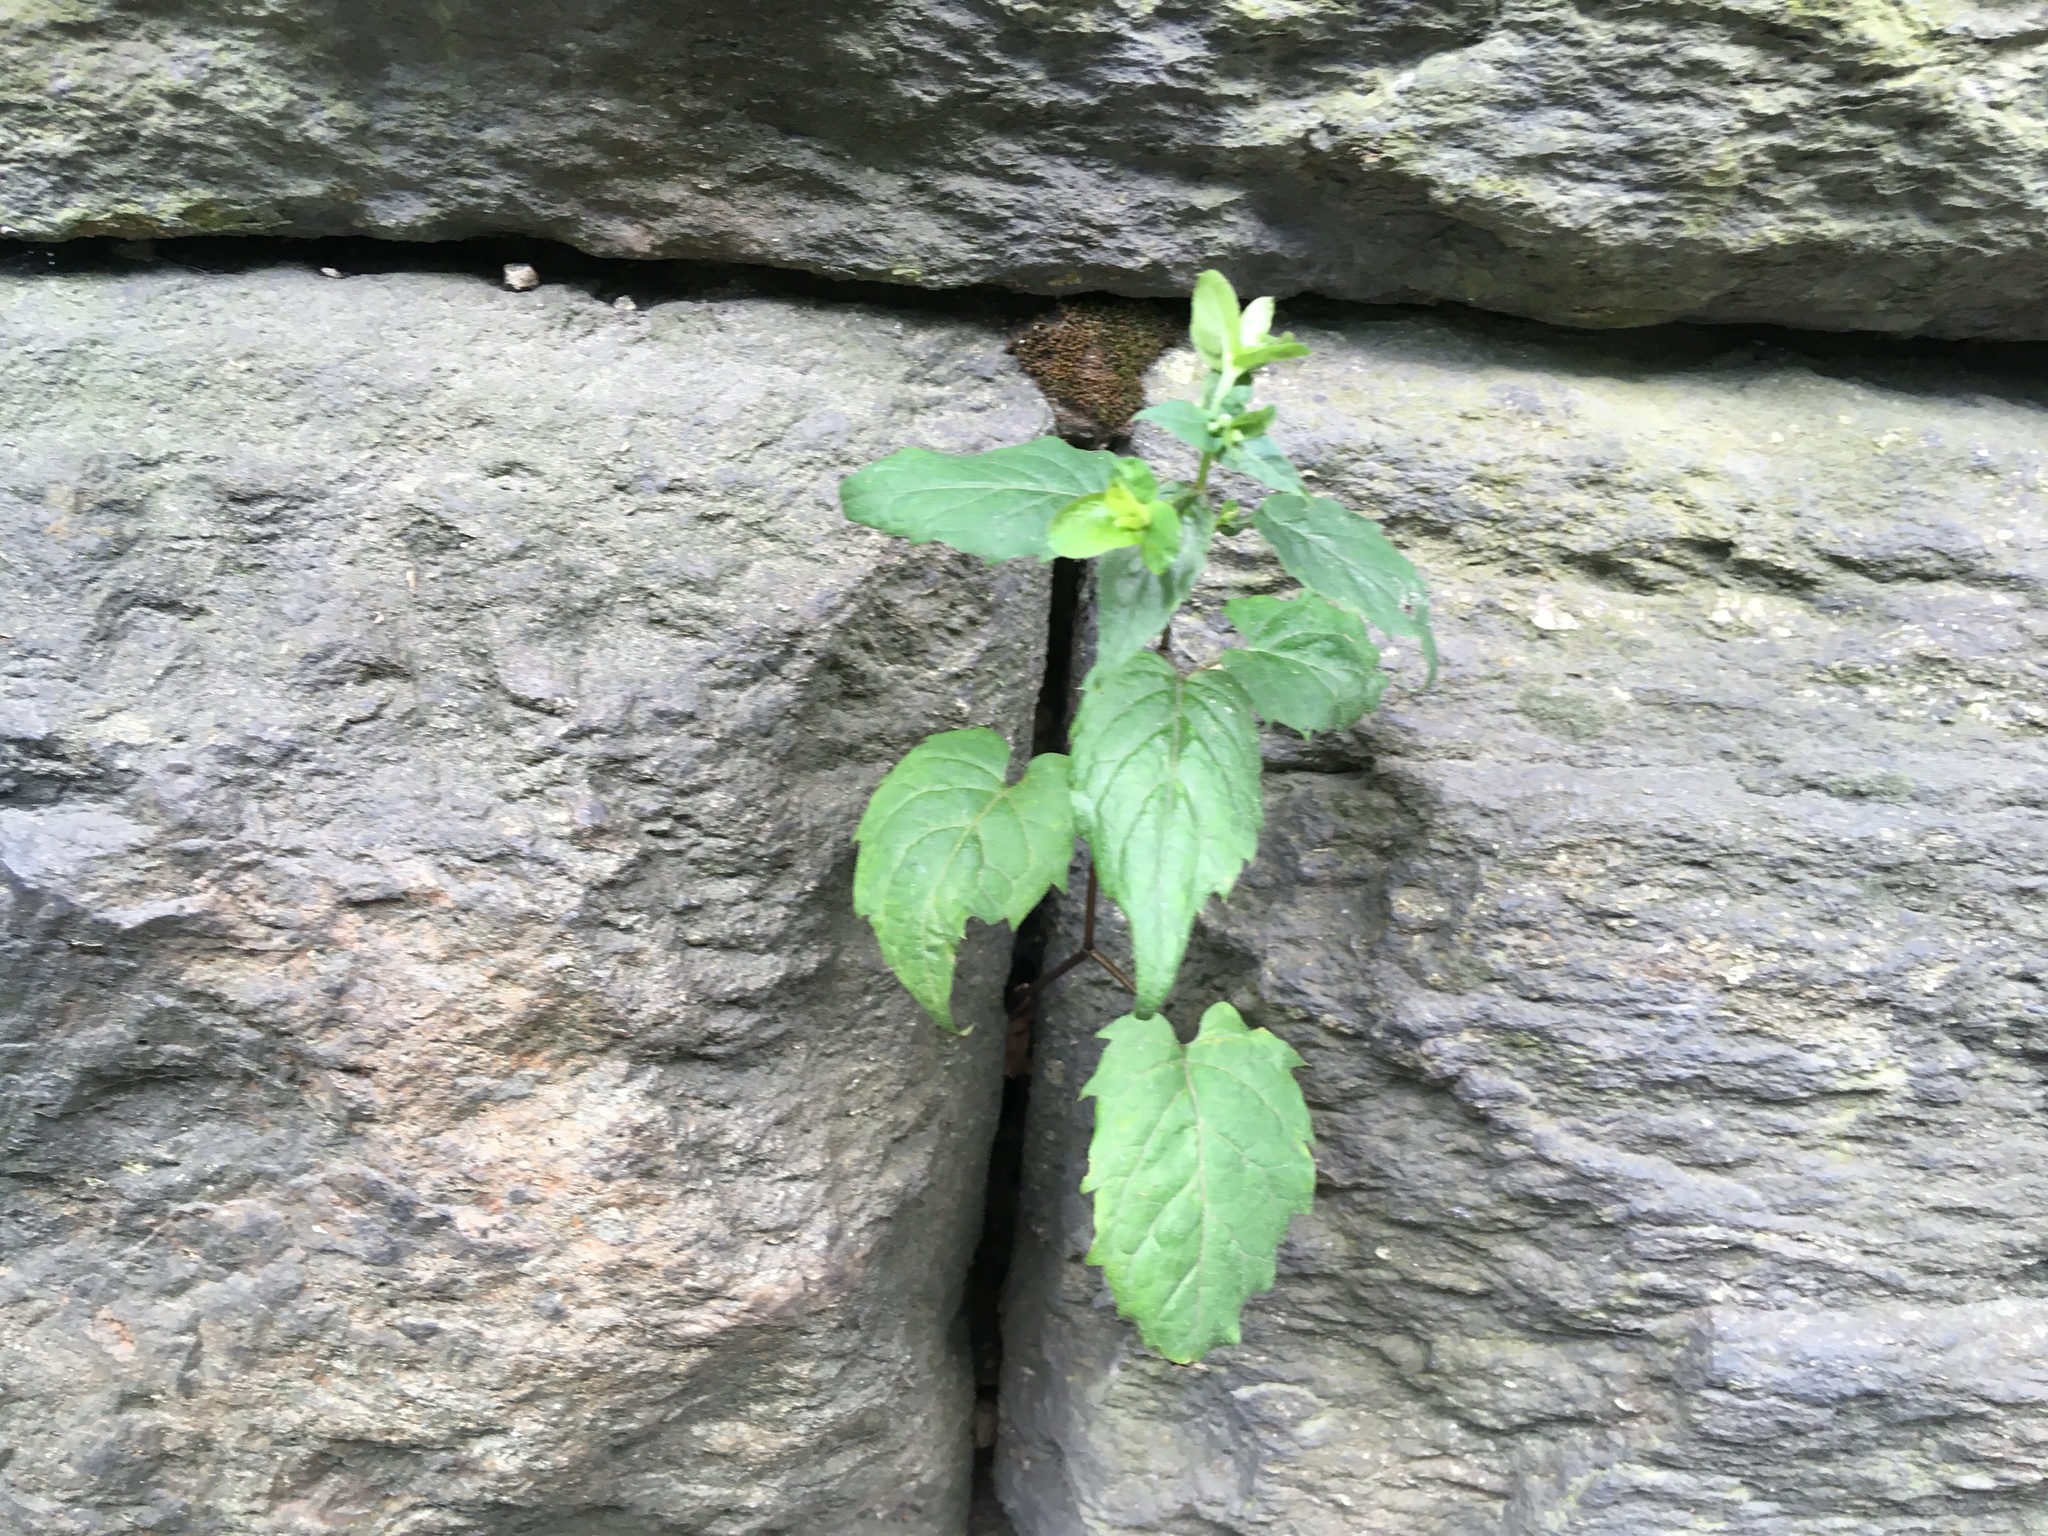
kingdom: Plantae
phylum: Tracheophyta
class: Magnoliopsida
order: Asterales
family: Asteraceae
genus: Eurybia
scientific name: Eurybia divaricata
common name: White wood aster
